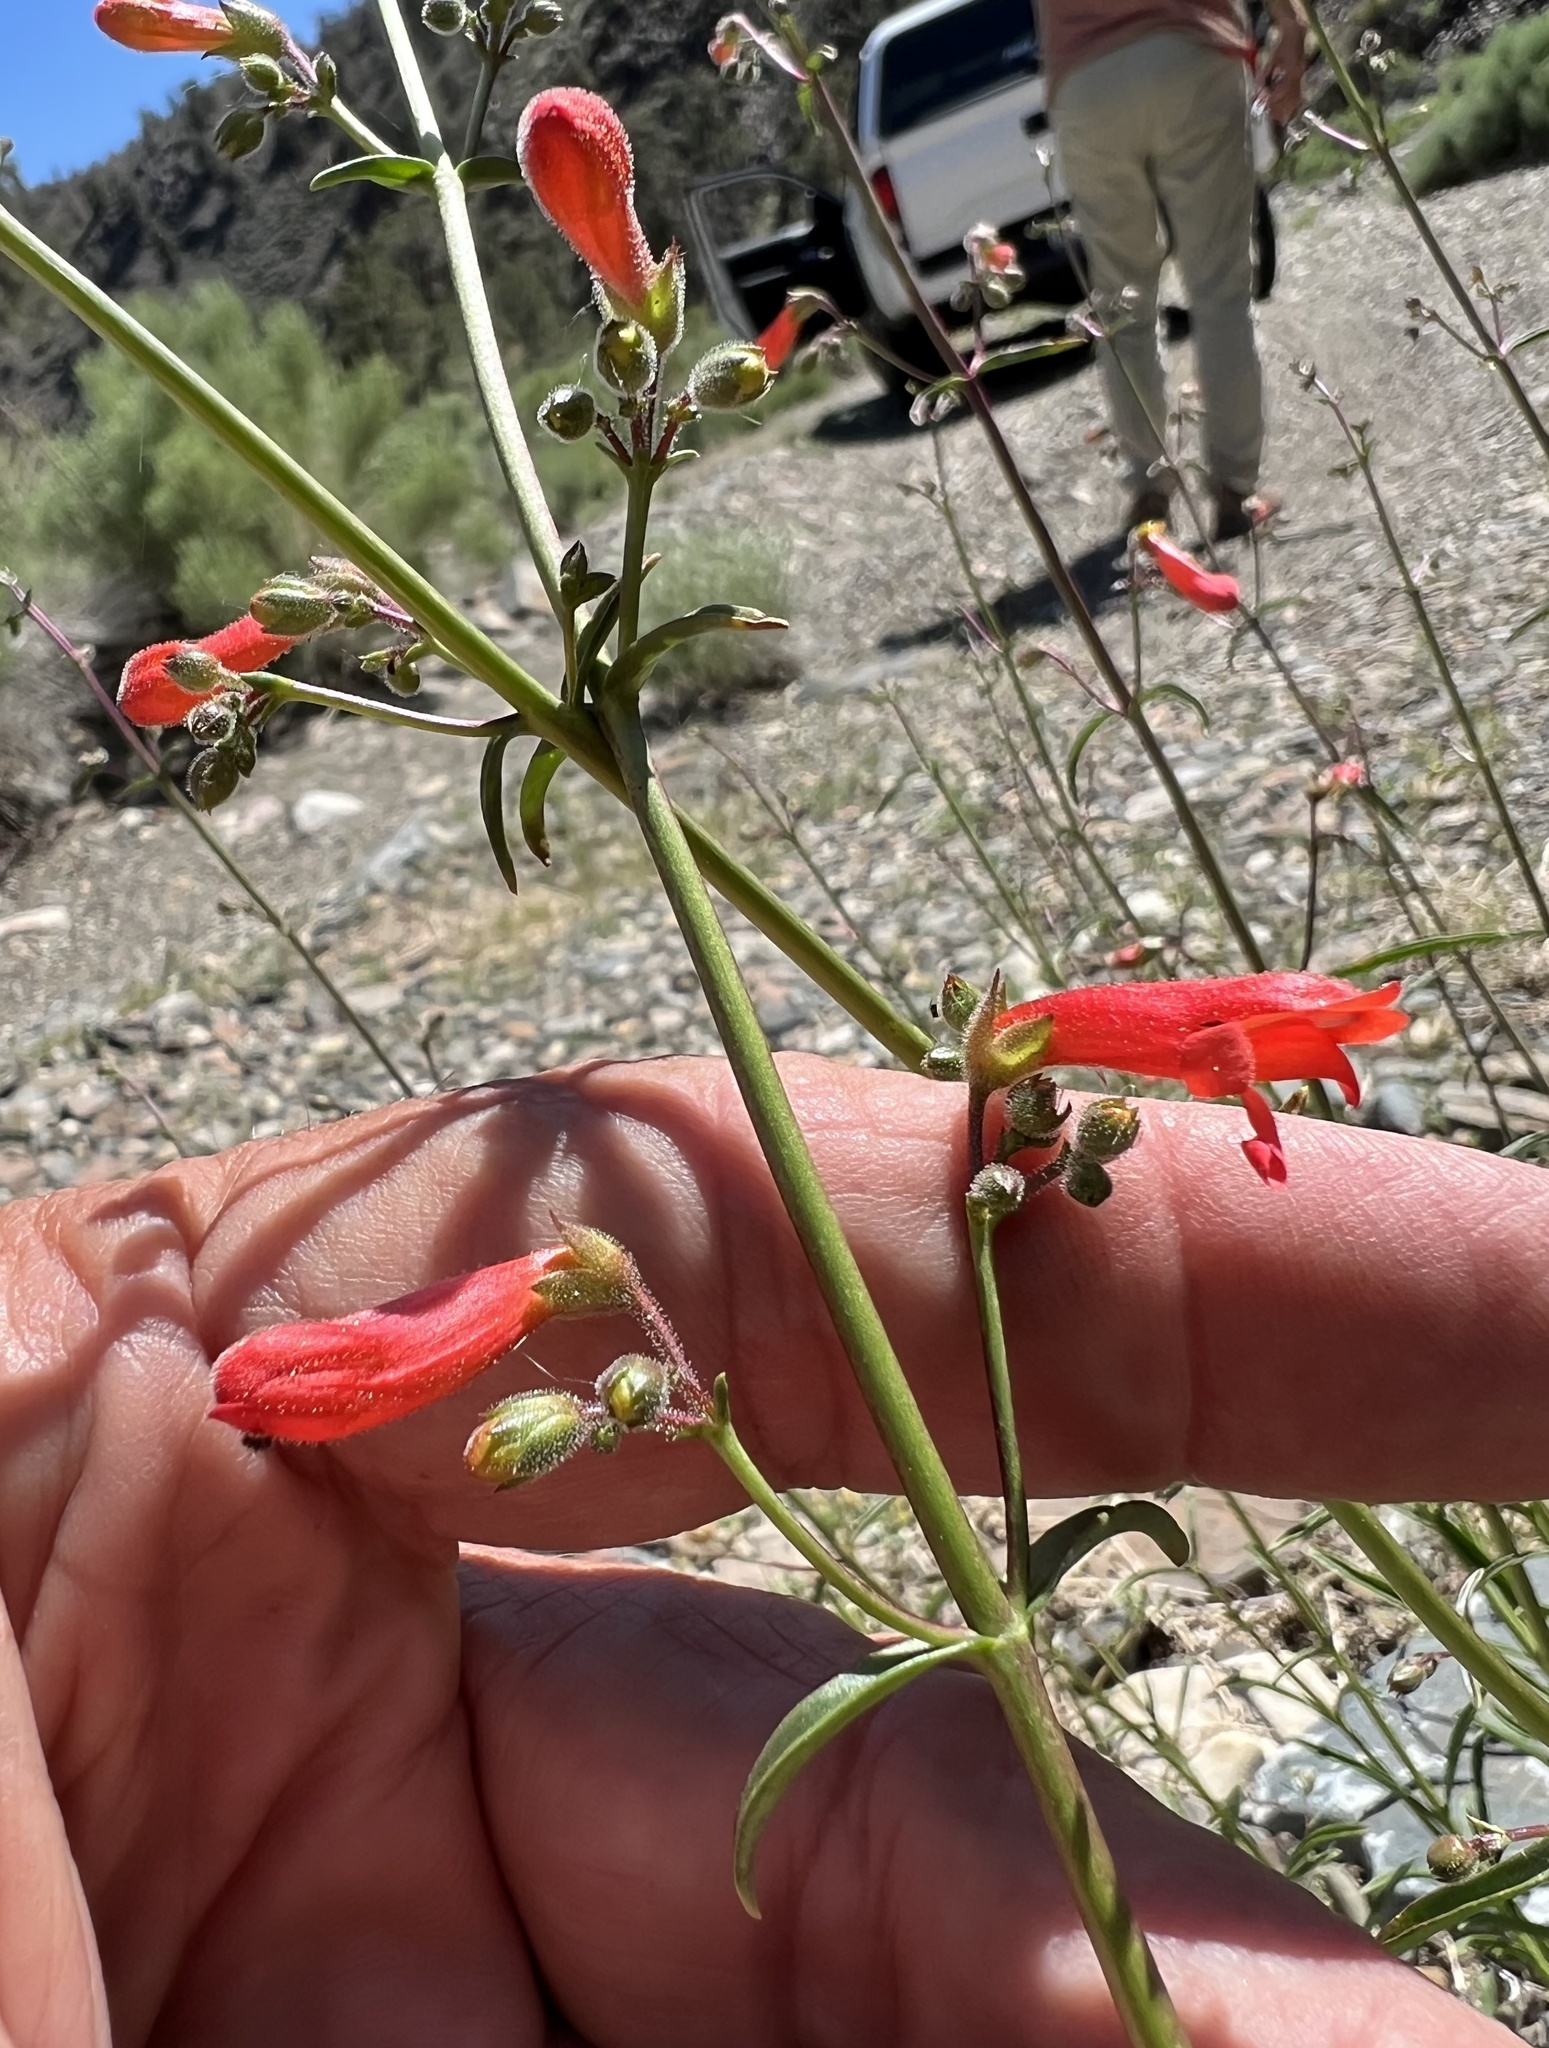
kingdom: Plantae
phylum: Tracheophyta
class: Magnoliopsida
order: Lamiales
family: Plantaginaceae
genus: Penstemon
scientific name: Penstemon rostriflorus
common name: Bridges's penstemon
